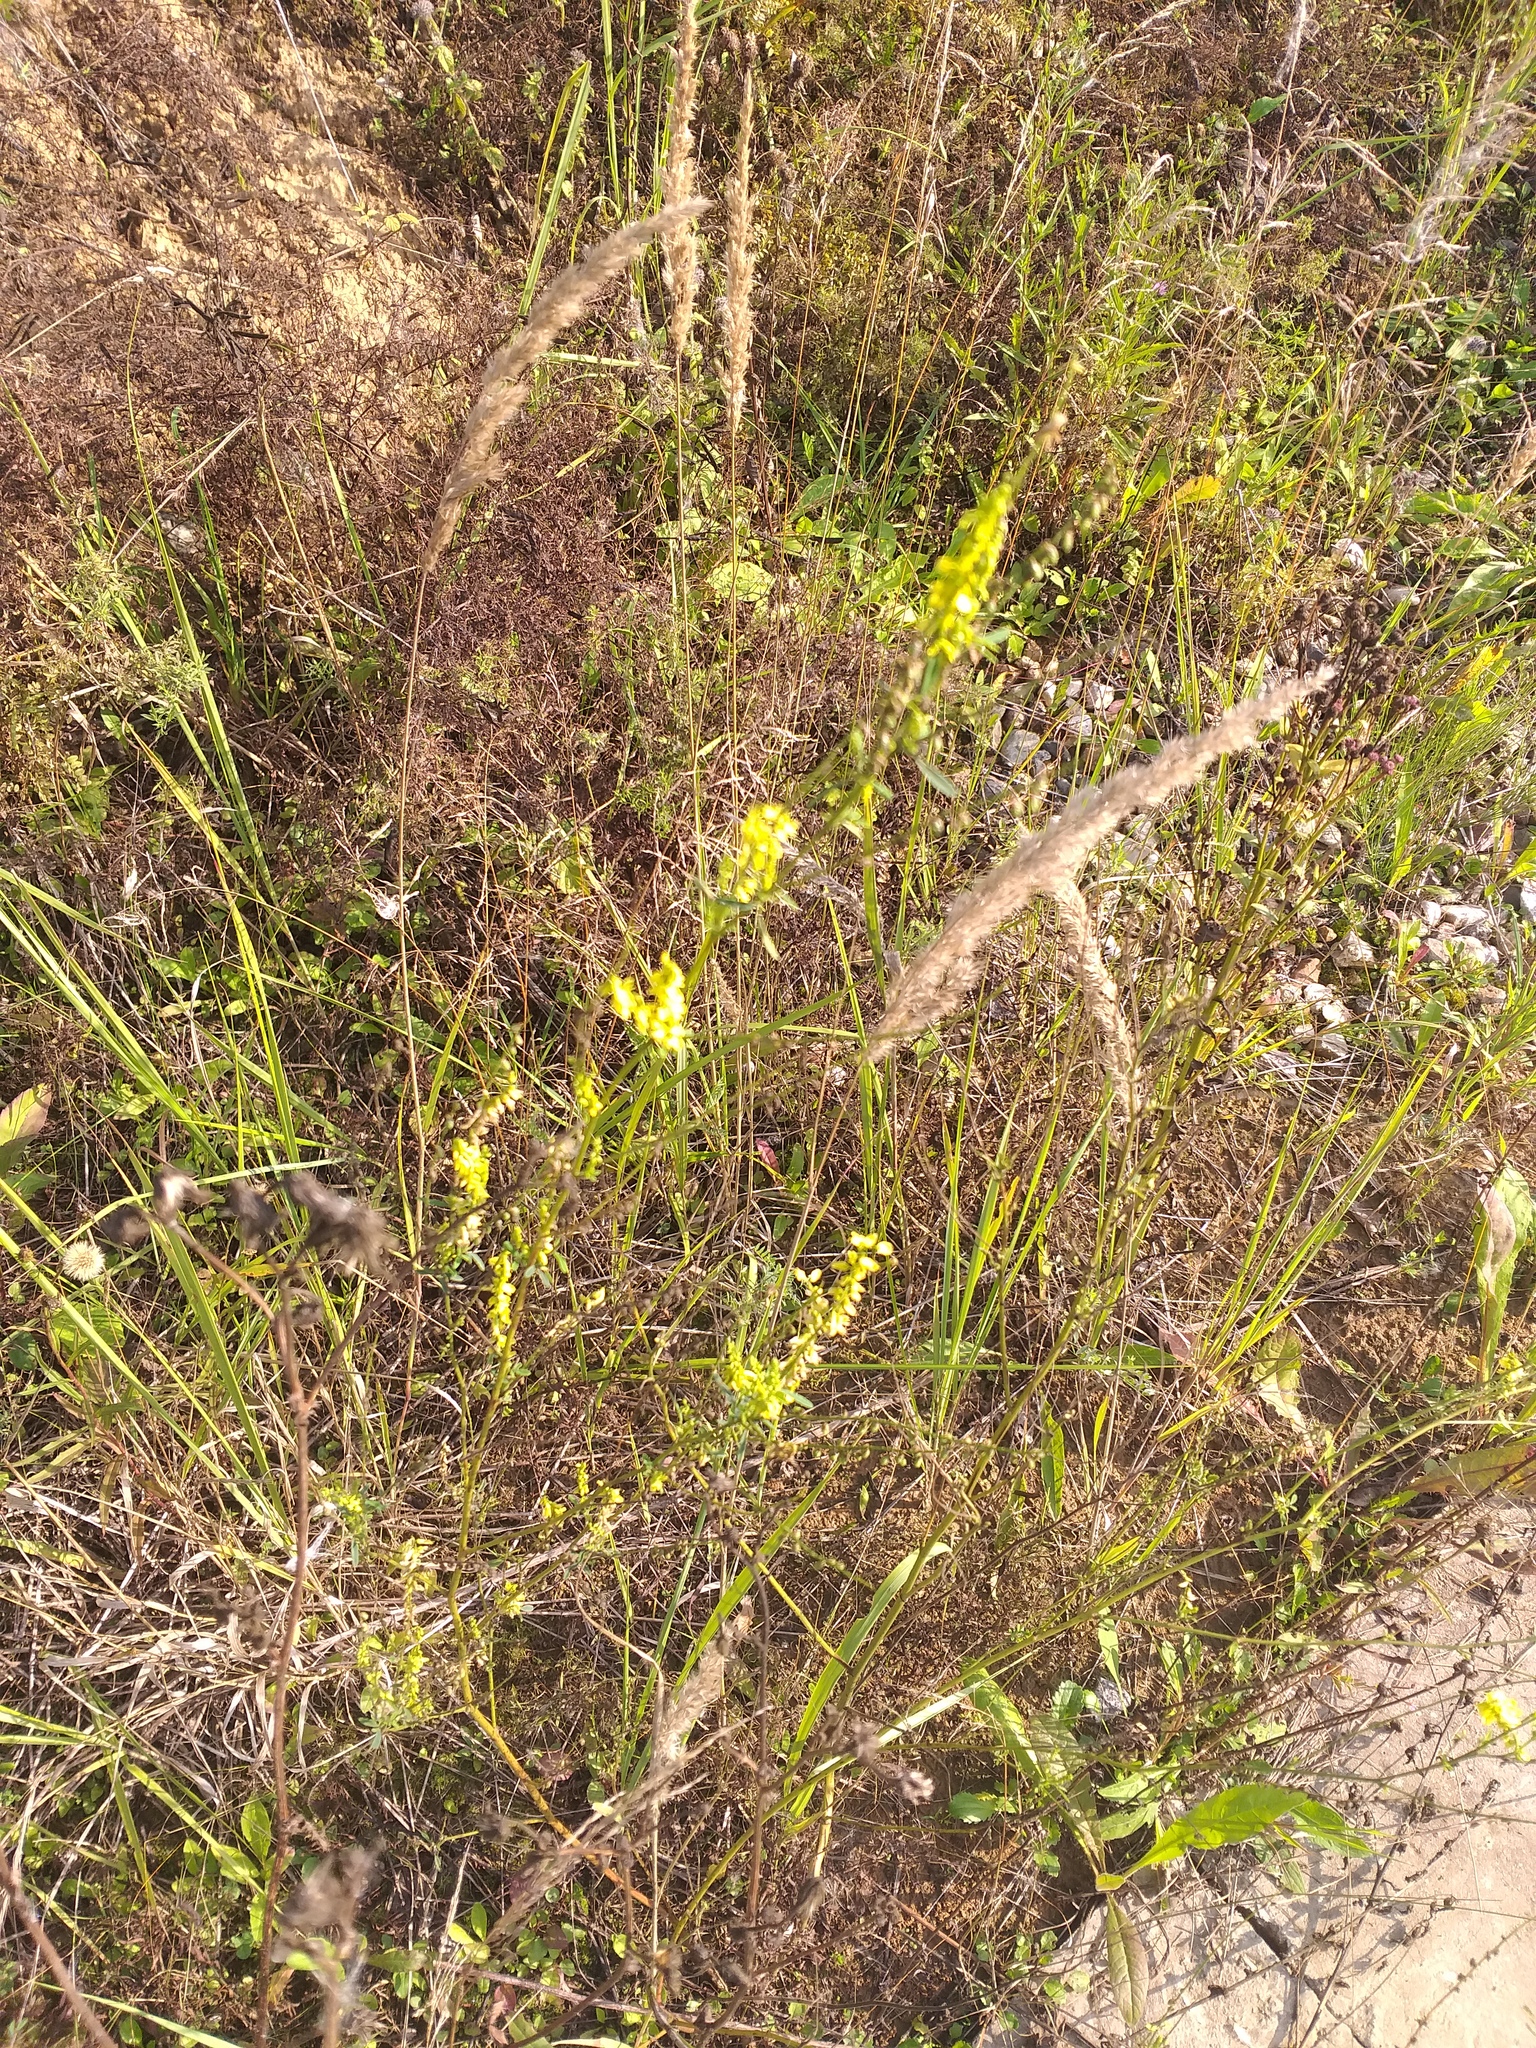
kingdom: Plantae
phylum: Tracheophyta
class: Magnoliopsida
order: Fabales
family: Fabaceae
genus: Melilotus
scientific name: Melilotus officinalis
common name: Sweetclover
